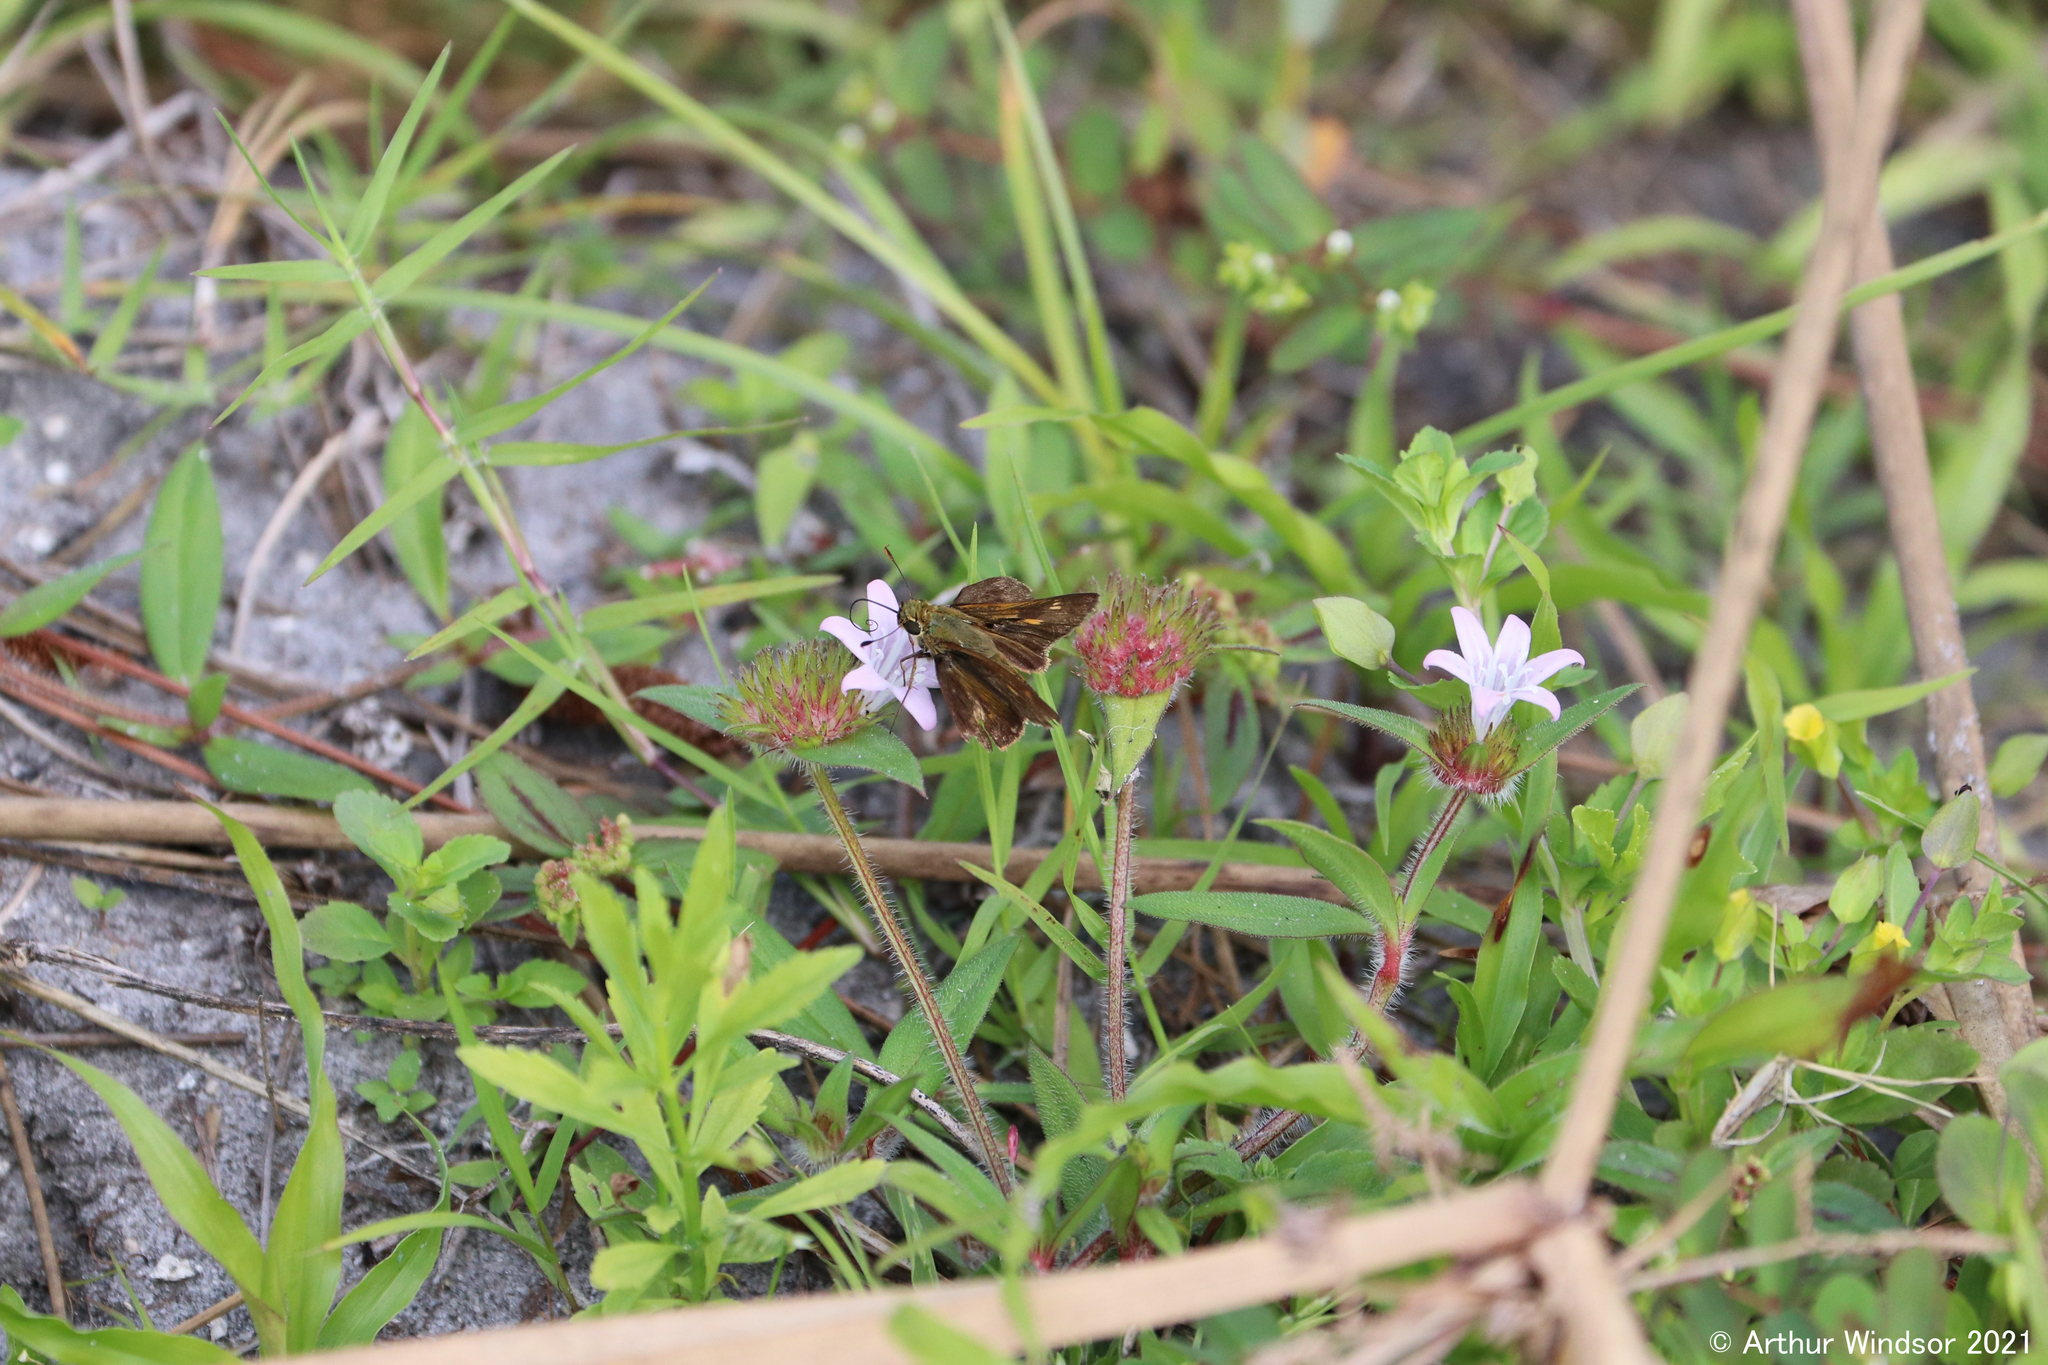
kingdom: Animalia
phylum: Arthropoda
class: Insecta
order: Lepidoptera
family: Hesperiidae
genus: Polites
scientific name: Polites otho
